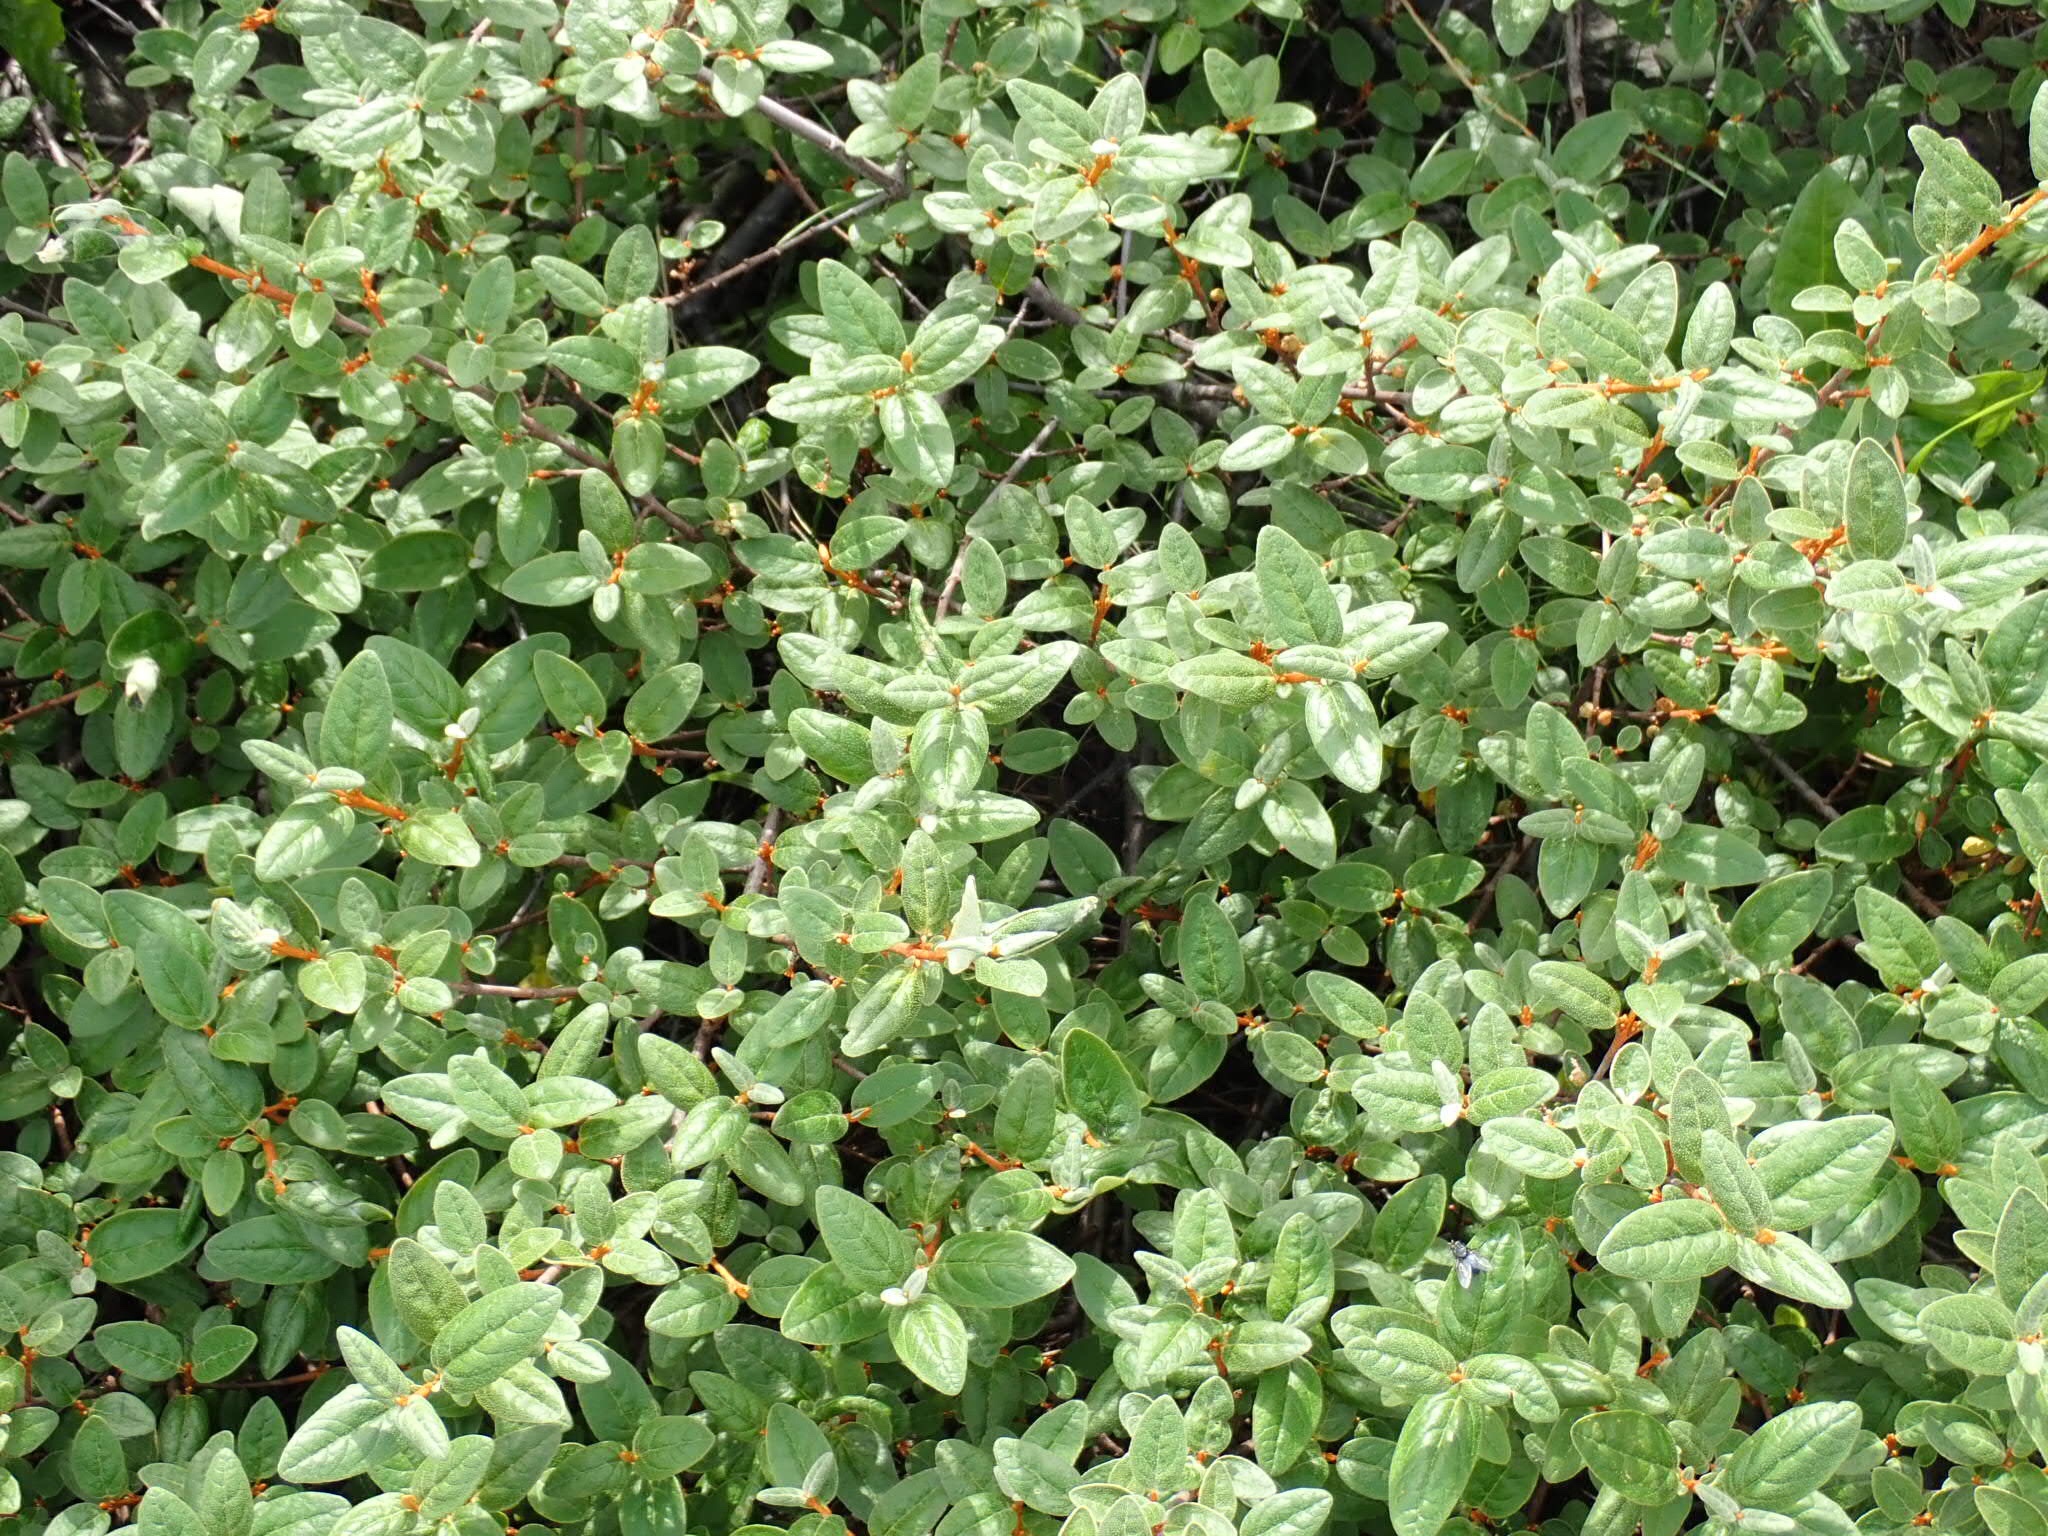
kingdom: Plantae
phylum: Tracheophyta
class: Magnoliopsida
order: Rosales
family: Elaeagnaceae
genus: Shepherdia
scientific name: Shepherdia canadensis
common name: Soapberry
